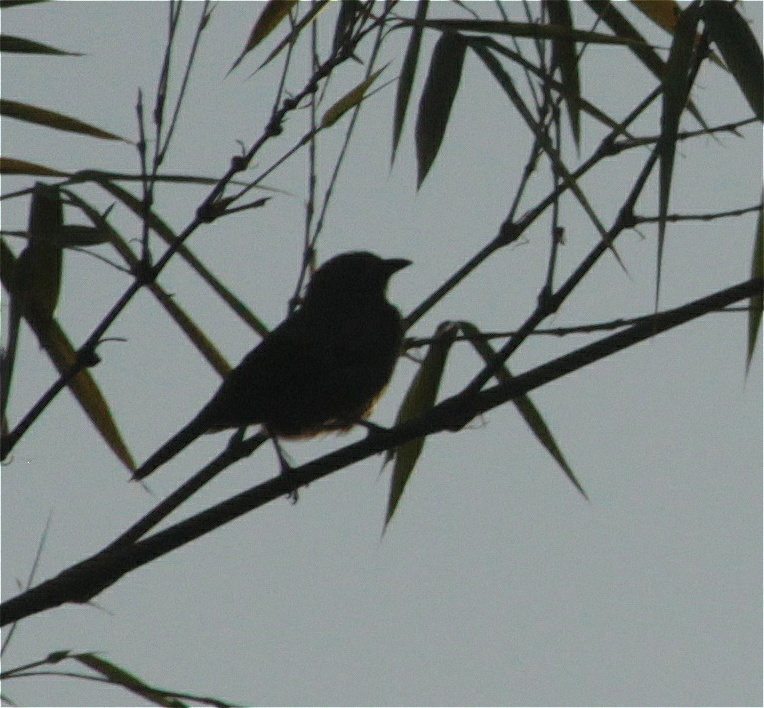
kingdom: Animalia
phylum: Chordata
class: Aves
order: Passeriformes
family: Thraupidae
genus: Thraupis
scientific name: Thraupis palmarum
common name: Palm tanager
